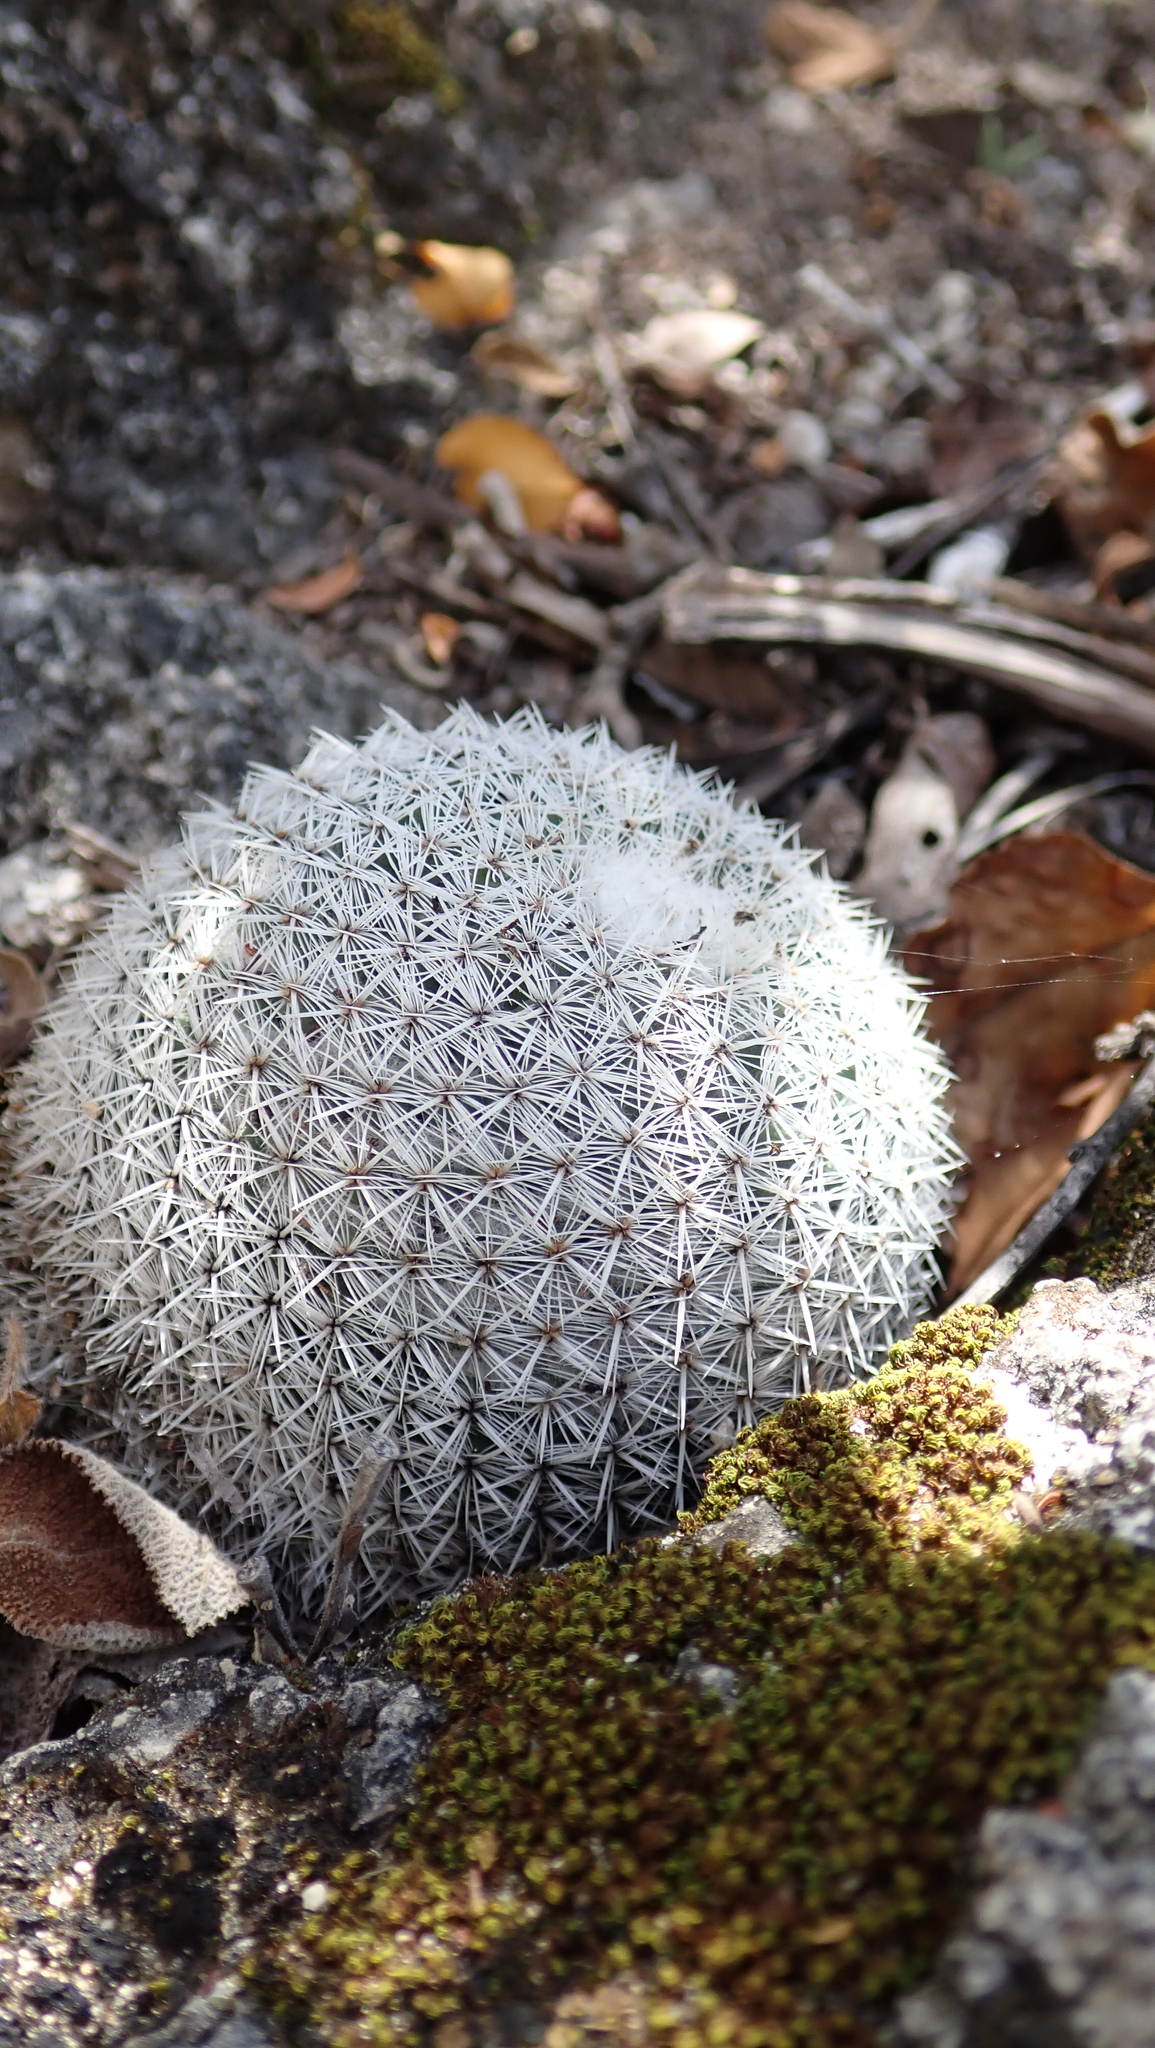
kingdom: Plantae
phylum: Tracheophyta
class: Magnoliopsida
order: Caryophyllales
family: Cactaceae
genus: Mammillaria
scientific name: Mammillaria albilanata
